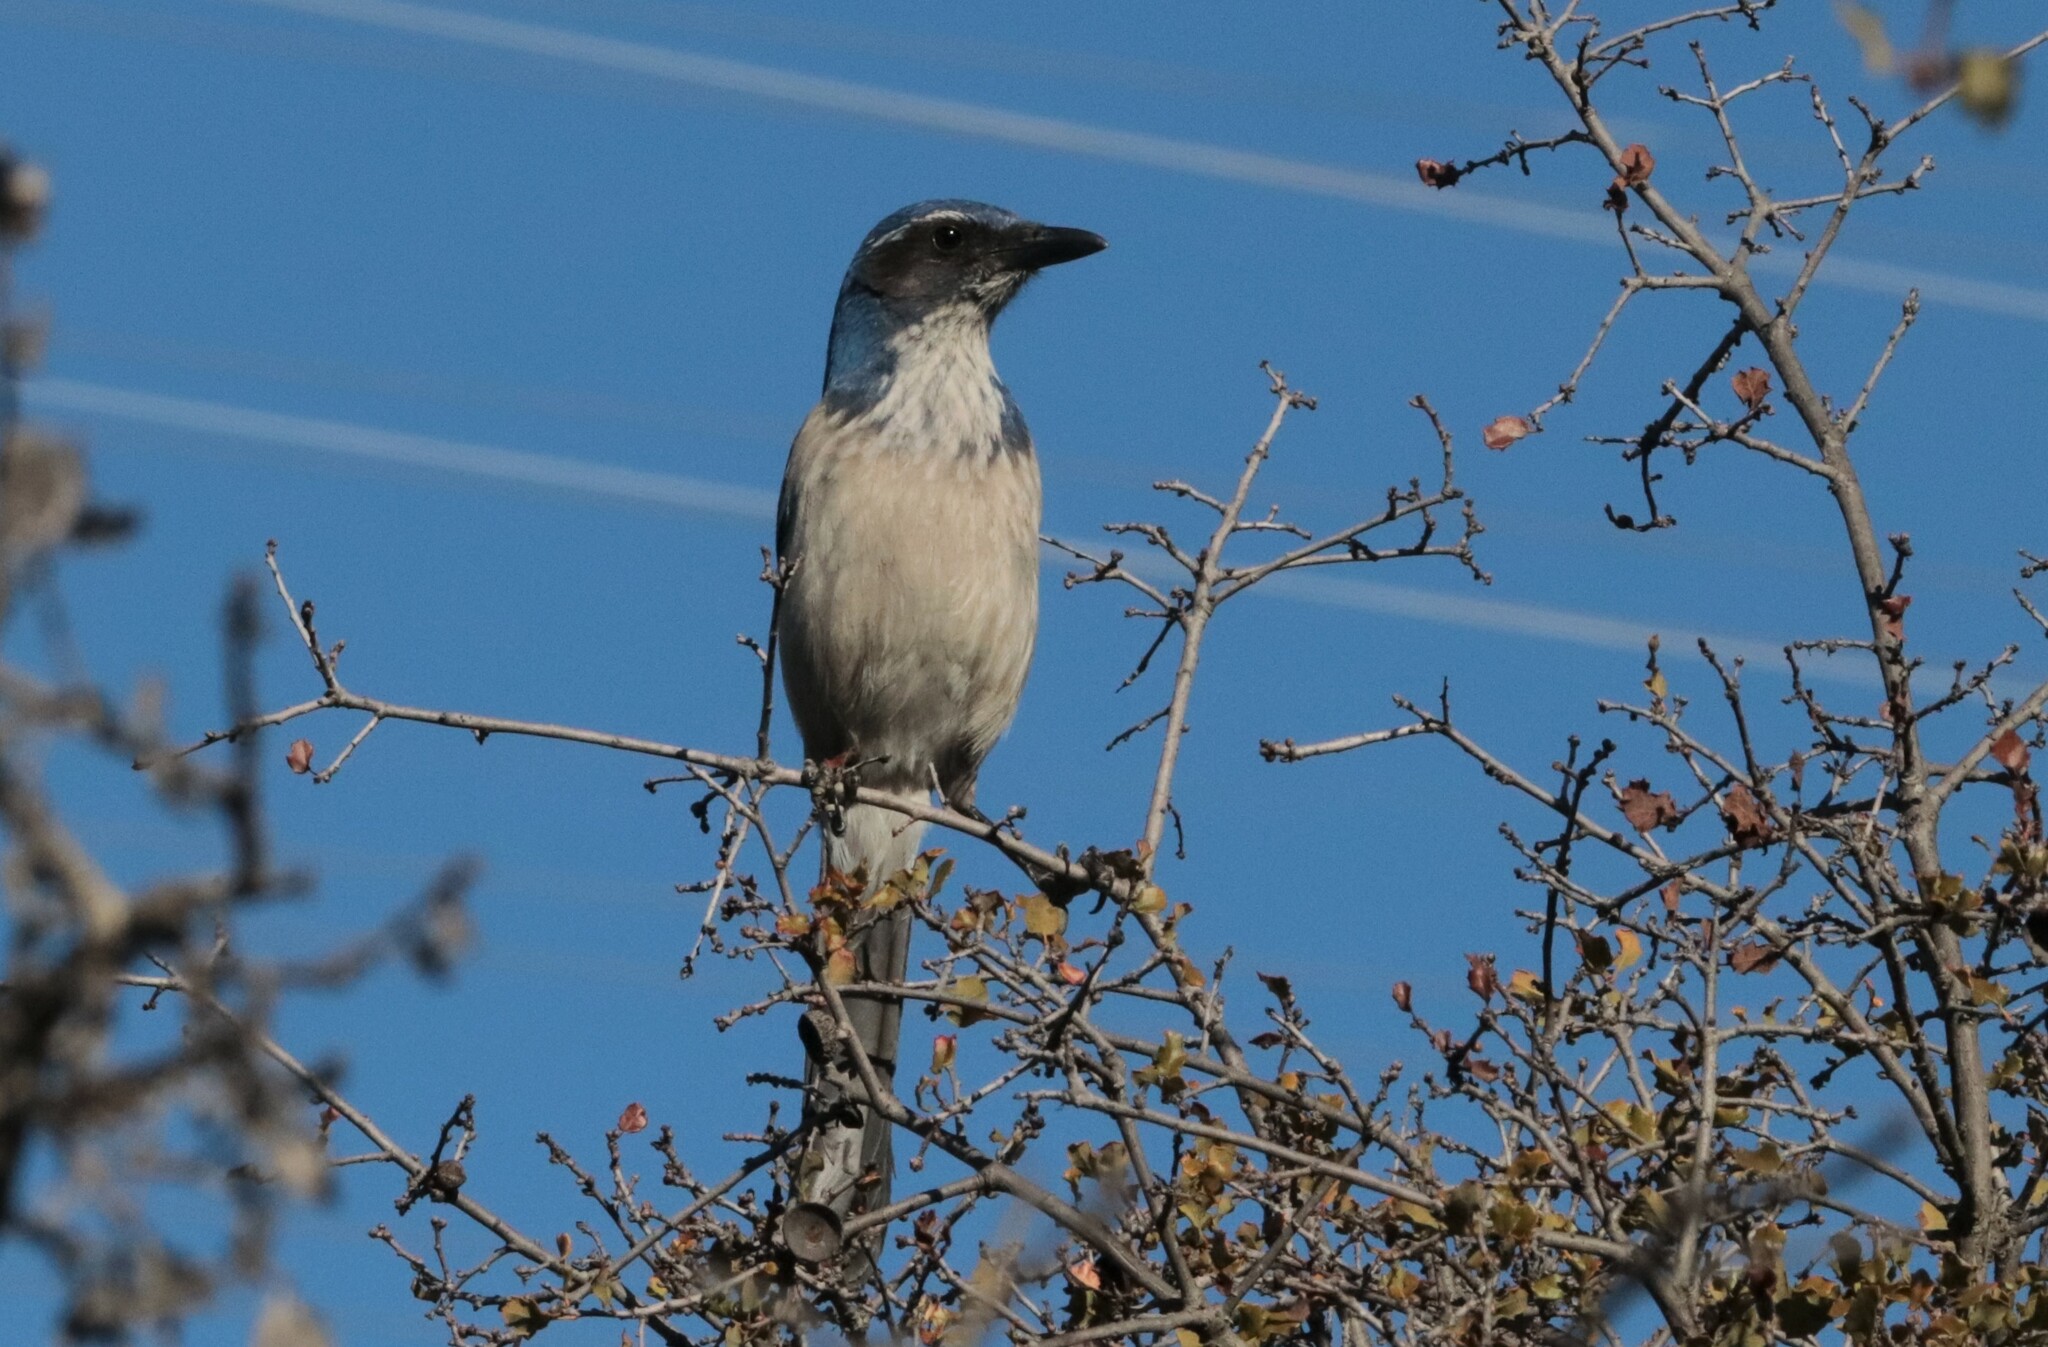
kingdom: Animalia
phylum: Chordata
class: Aves
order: Passeriformes
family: Corvidae
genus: Aphelocoma
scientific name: Aphelocoma californica
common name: California scrub-jay
